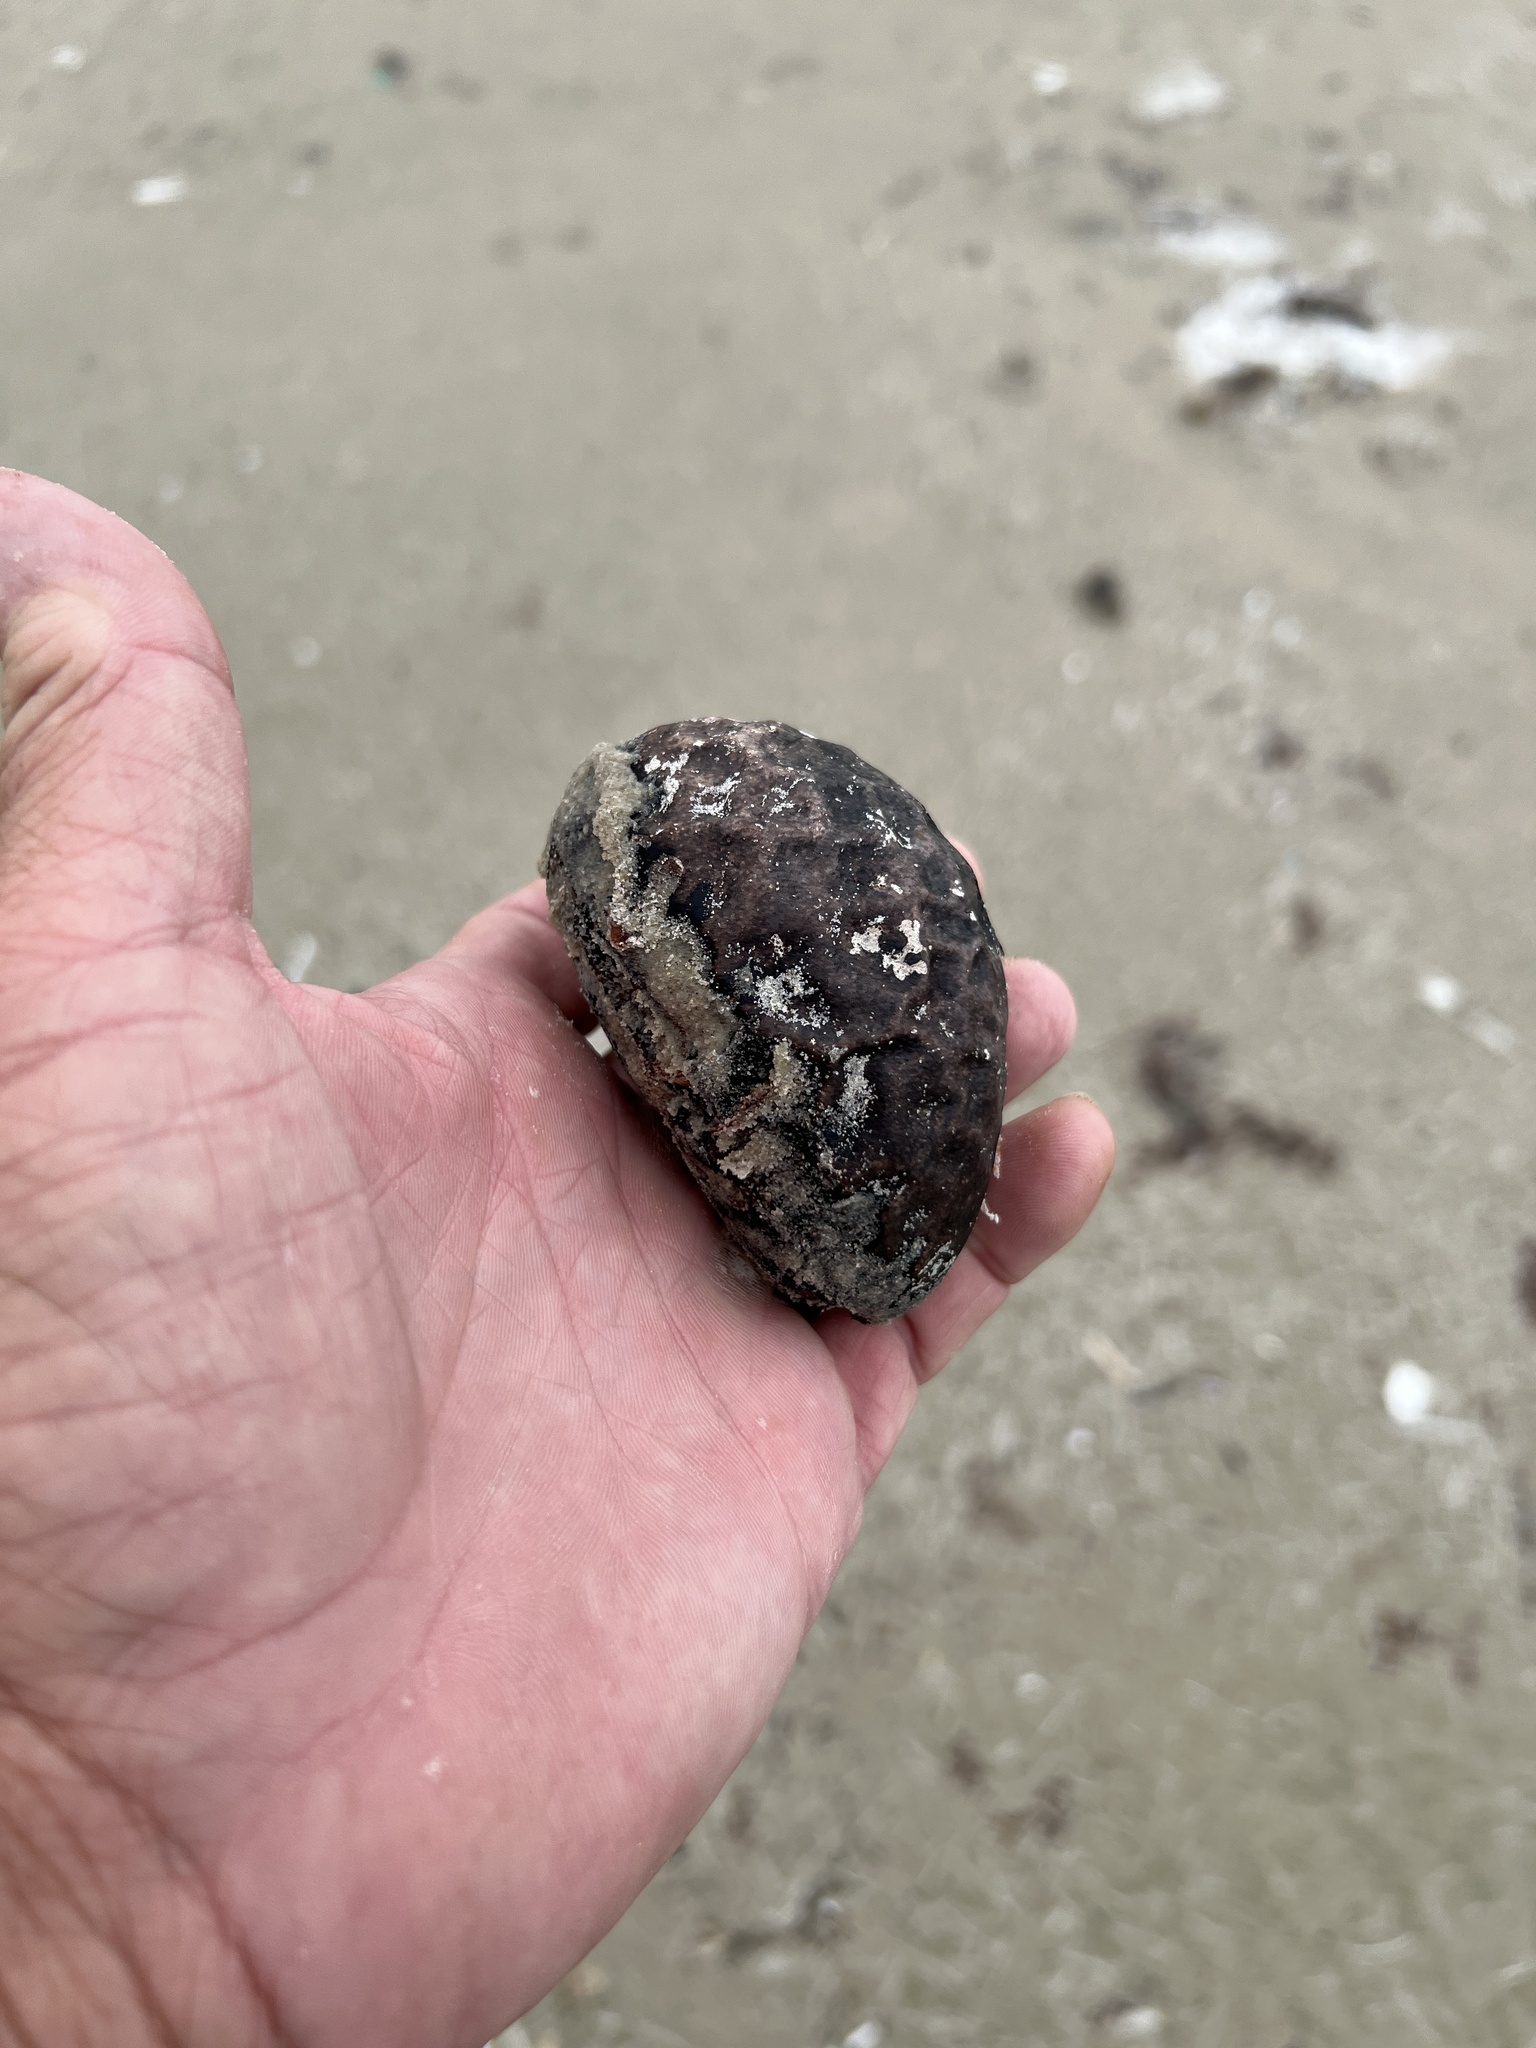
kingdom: Plantae
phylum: Tracheophyta
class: Magnoliopsida
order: Fabales
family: Fabaceae
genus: Andira
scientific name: Andira galeottiana
